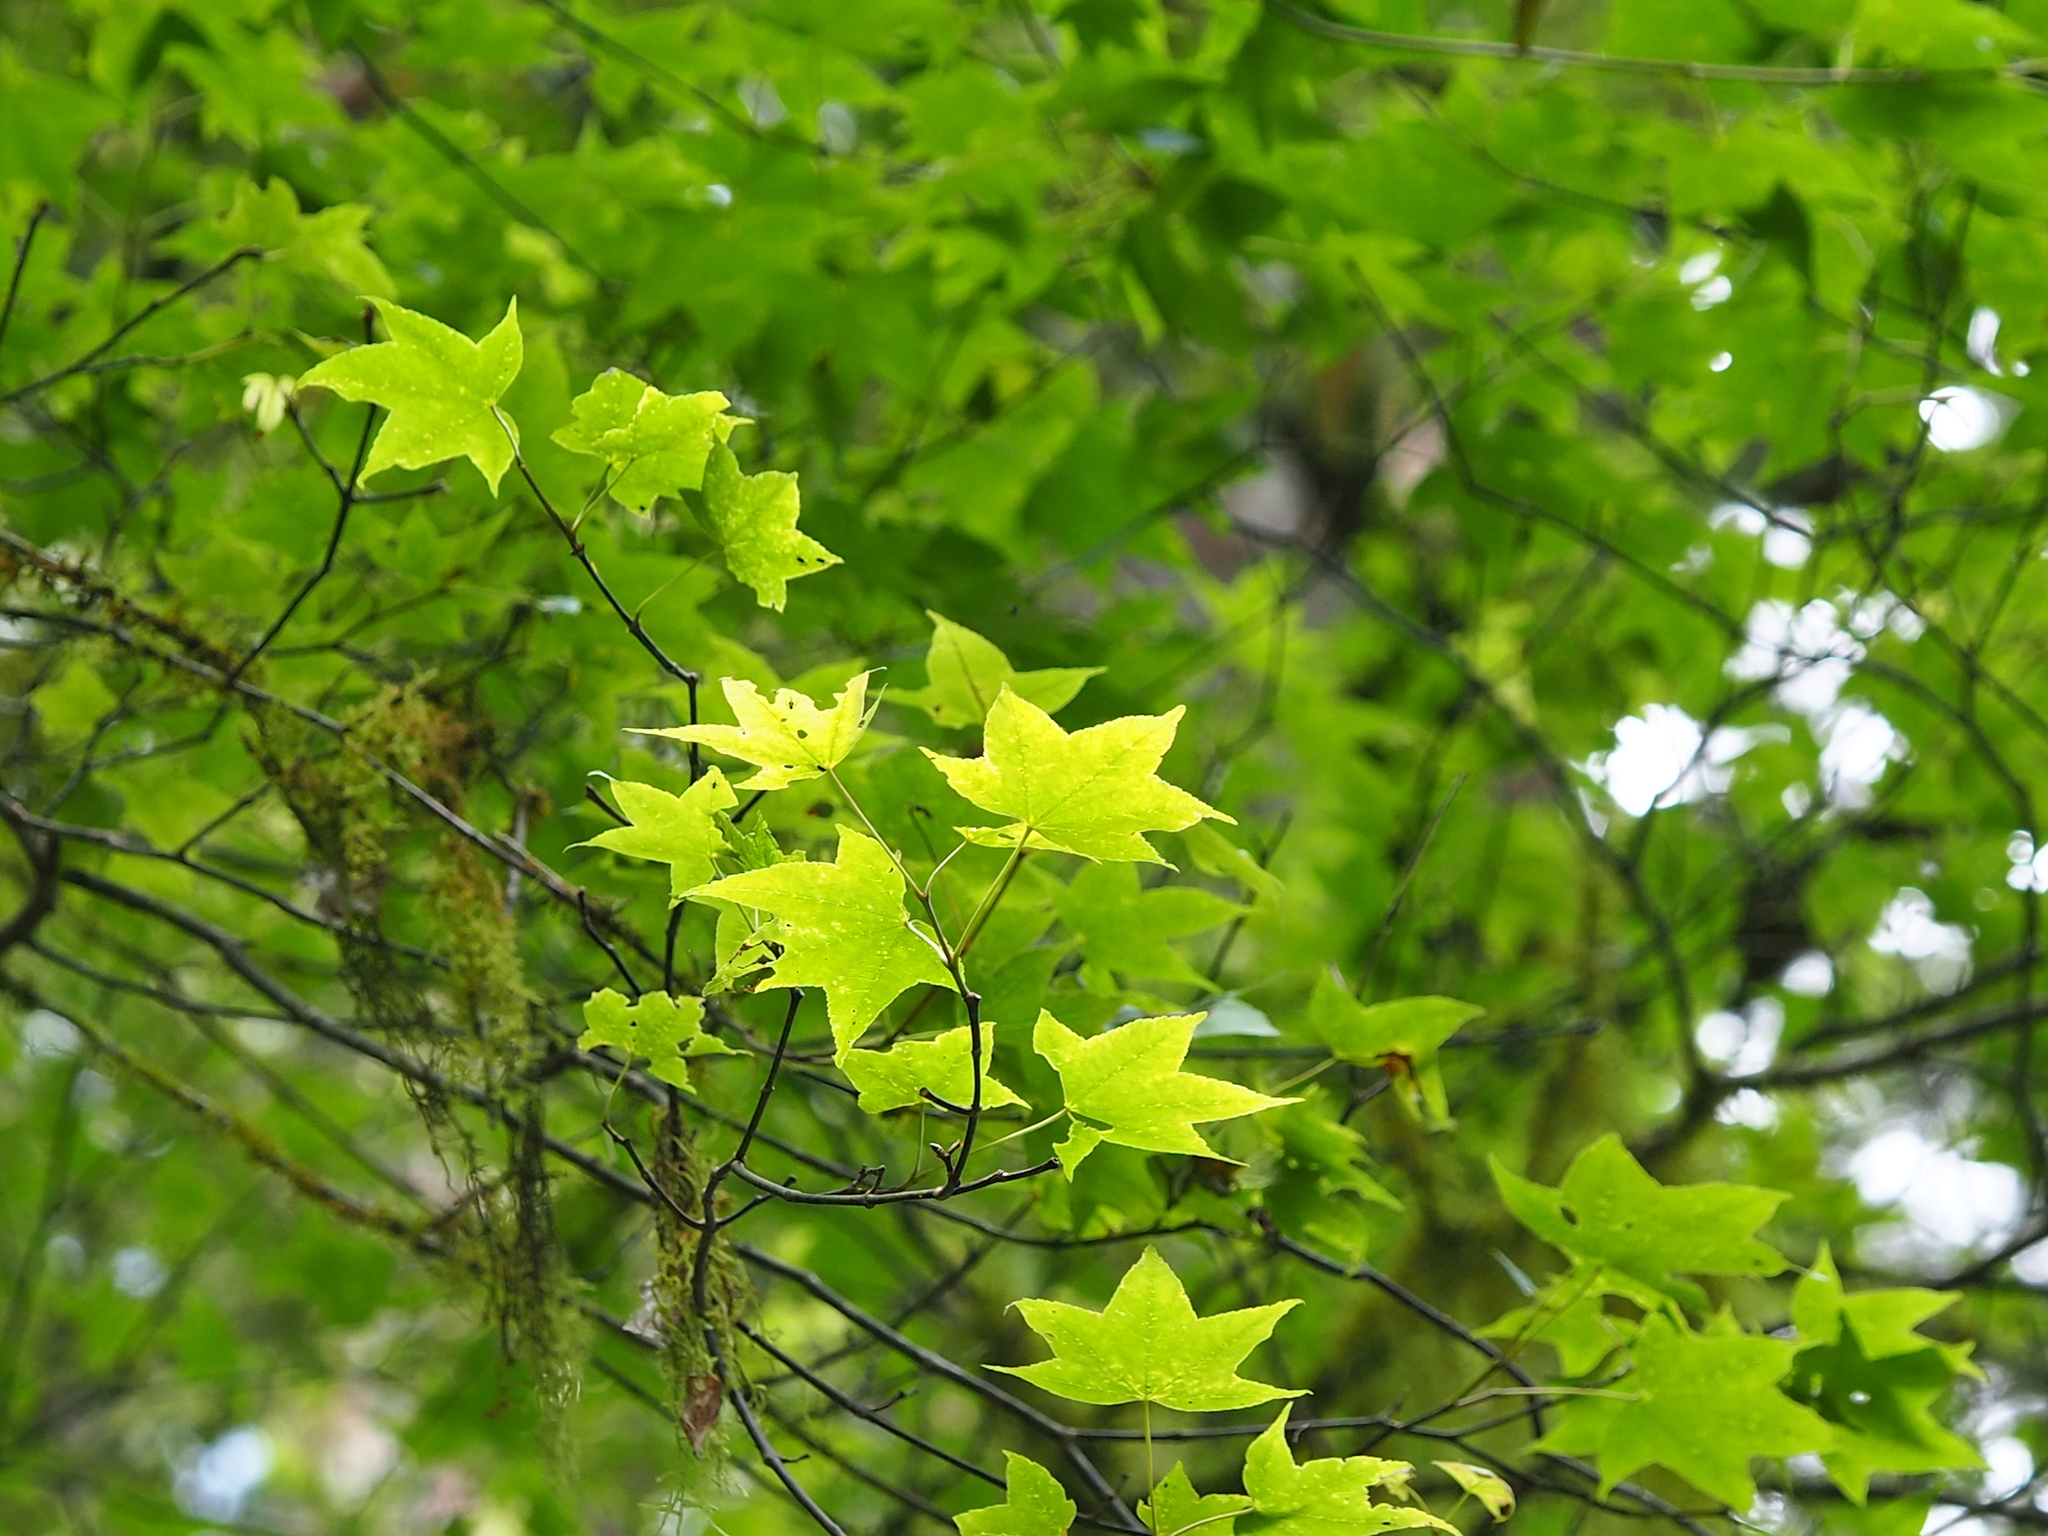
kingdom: Plantae
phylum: Tracheophyta
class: Magnoliopsida
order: Sapindales
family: Sapindaceae
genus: Acer
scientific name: Acer serrulatum
